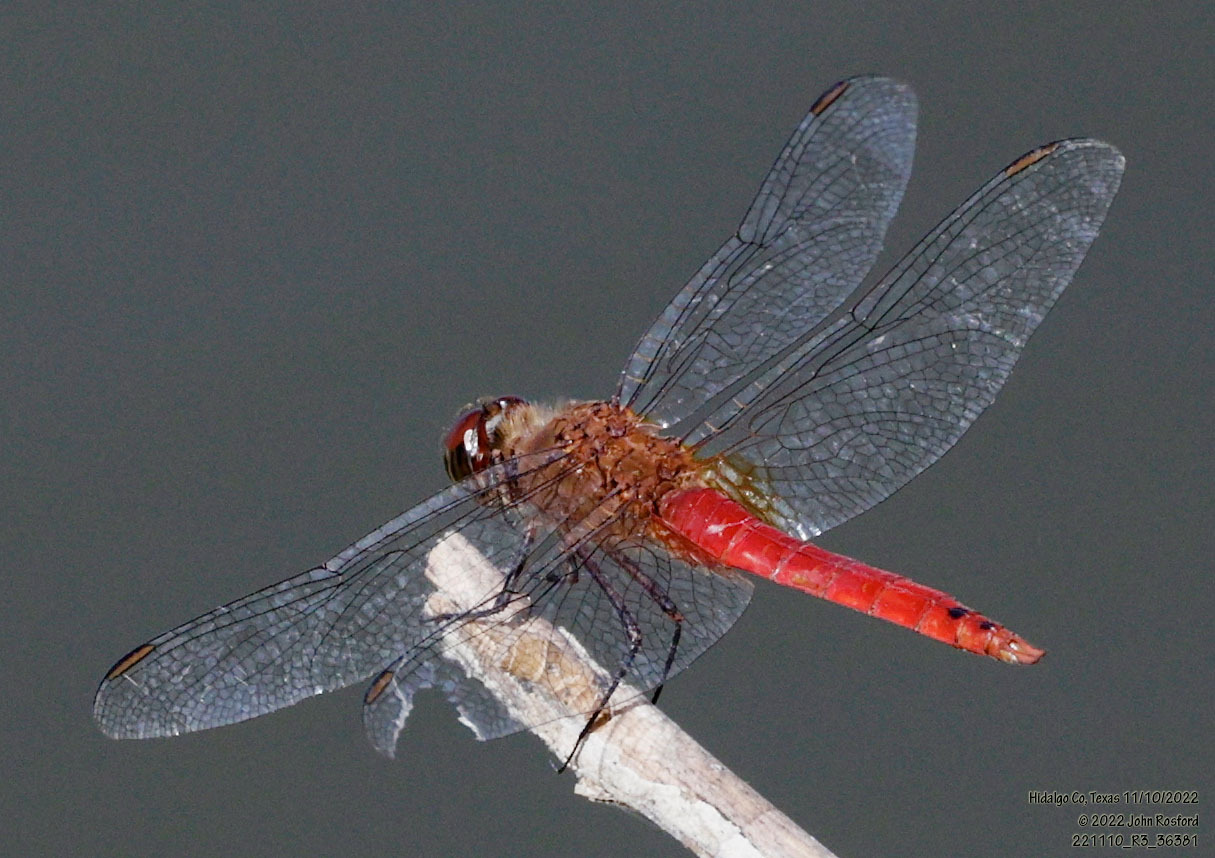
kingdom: Animalia
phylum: Arthropoda
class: Insecta
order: Odonata
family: Libellulidae
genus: Brachymesia
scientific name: Brachymesia furcata
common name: Red-taled pennant
